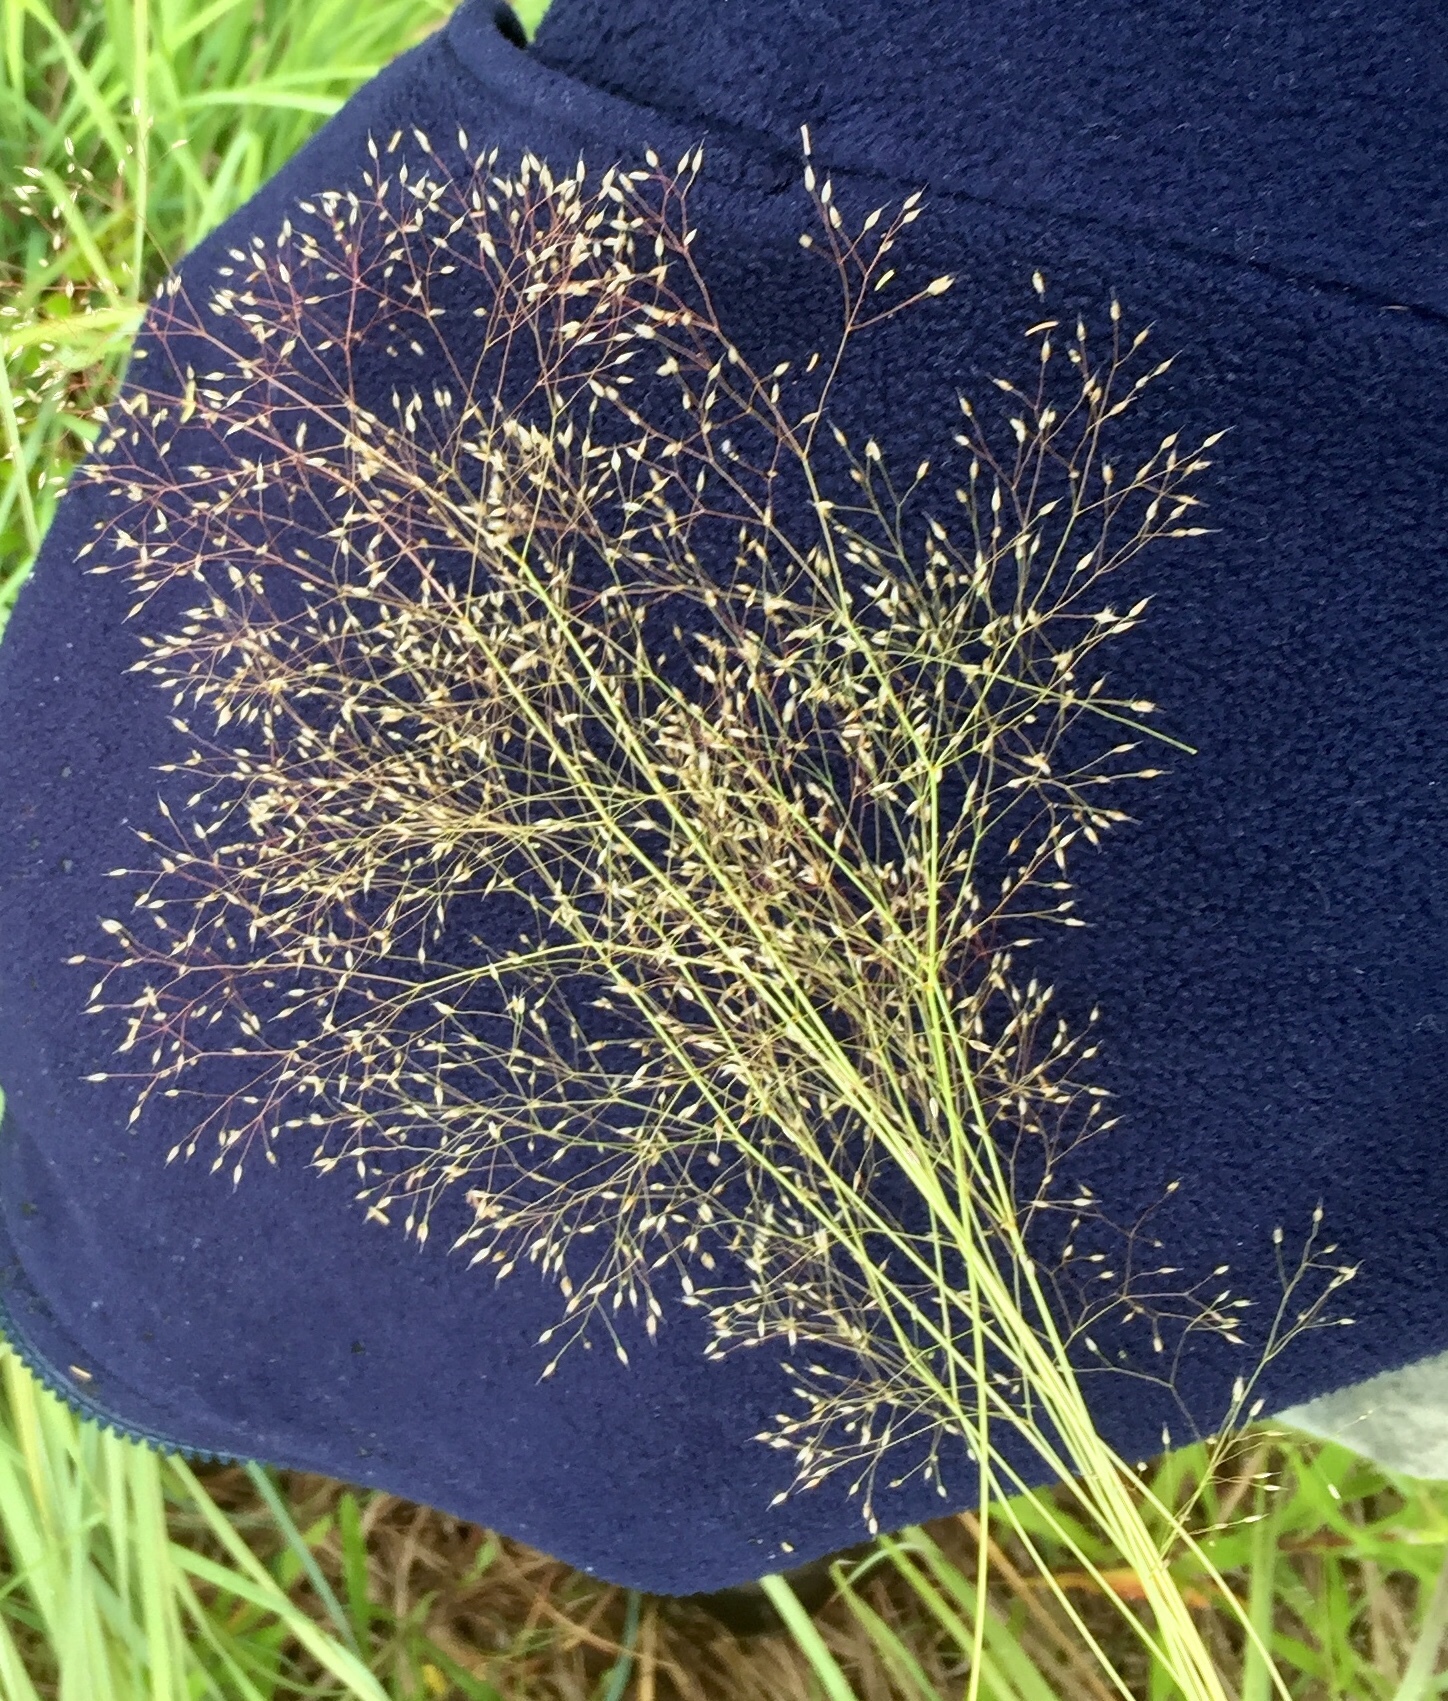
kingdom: Plantae
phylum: Tracheophyta
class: Liliopsida
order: Poales
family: Poaceae
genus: Aira
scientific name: Aira caryophyllea
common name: Silver hairgrass
